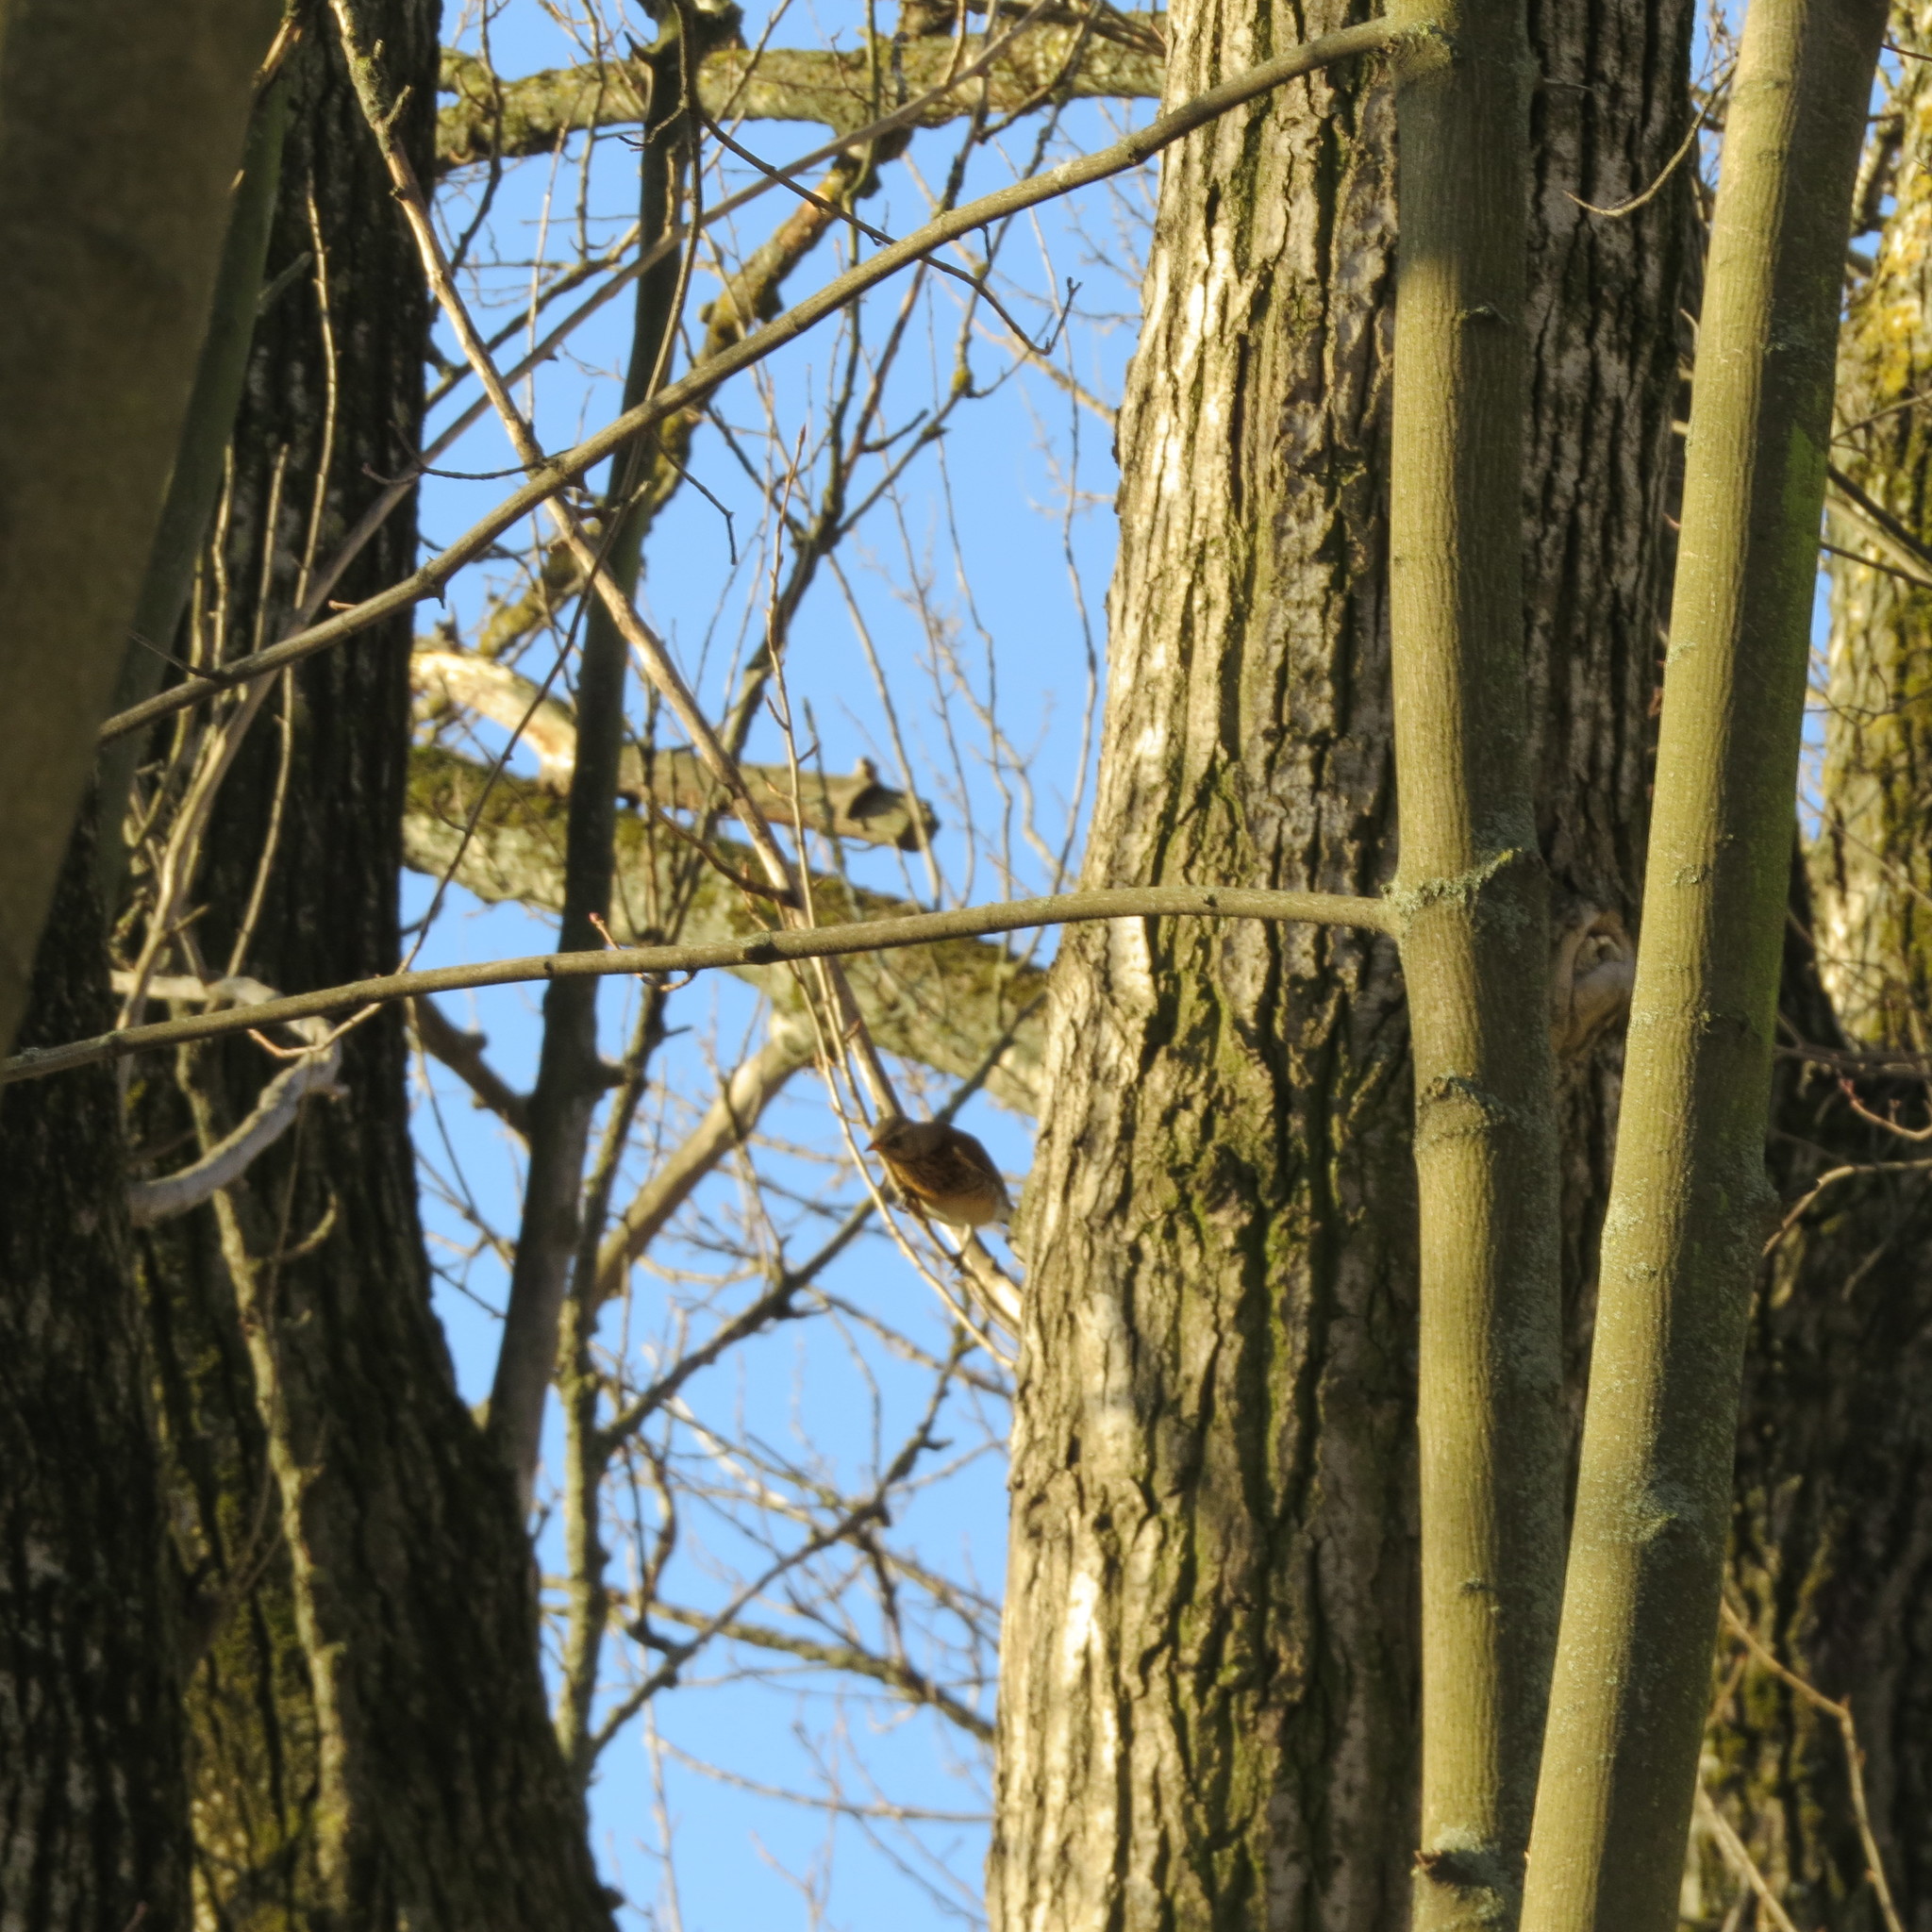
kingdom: Animalia
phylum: Chordata
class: Aves
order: Passeriformes
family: Turdidae
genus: Turdus
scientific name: Turdus pilaris
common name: Fieldfare
